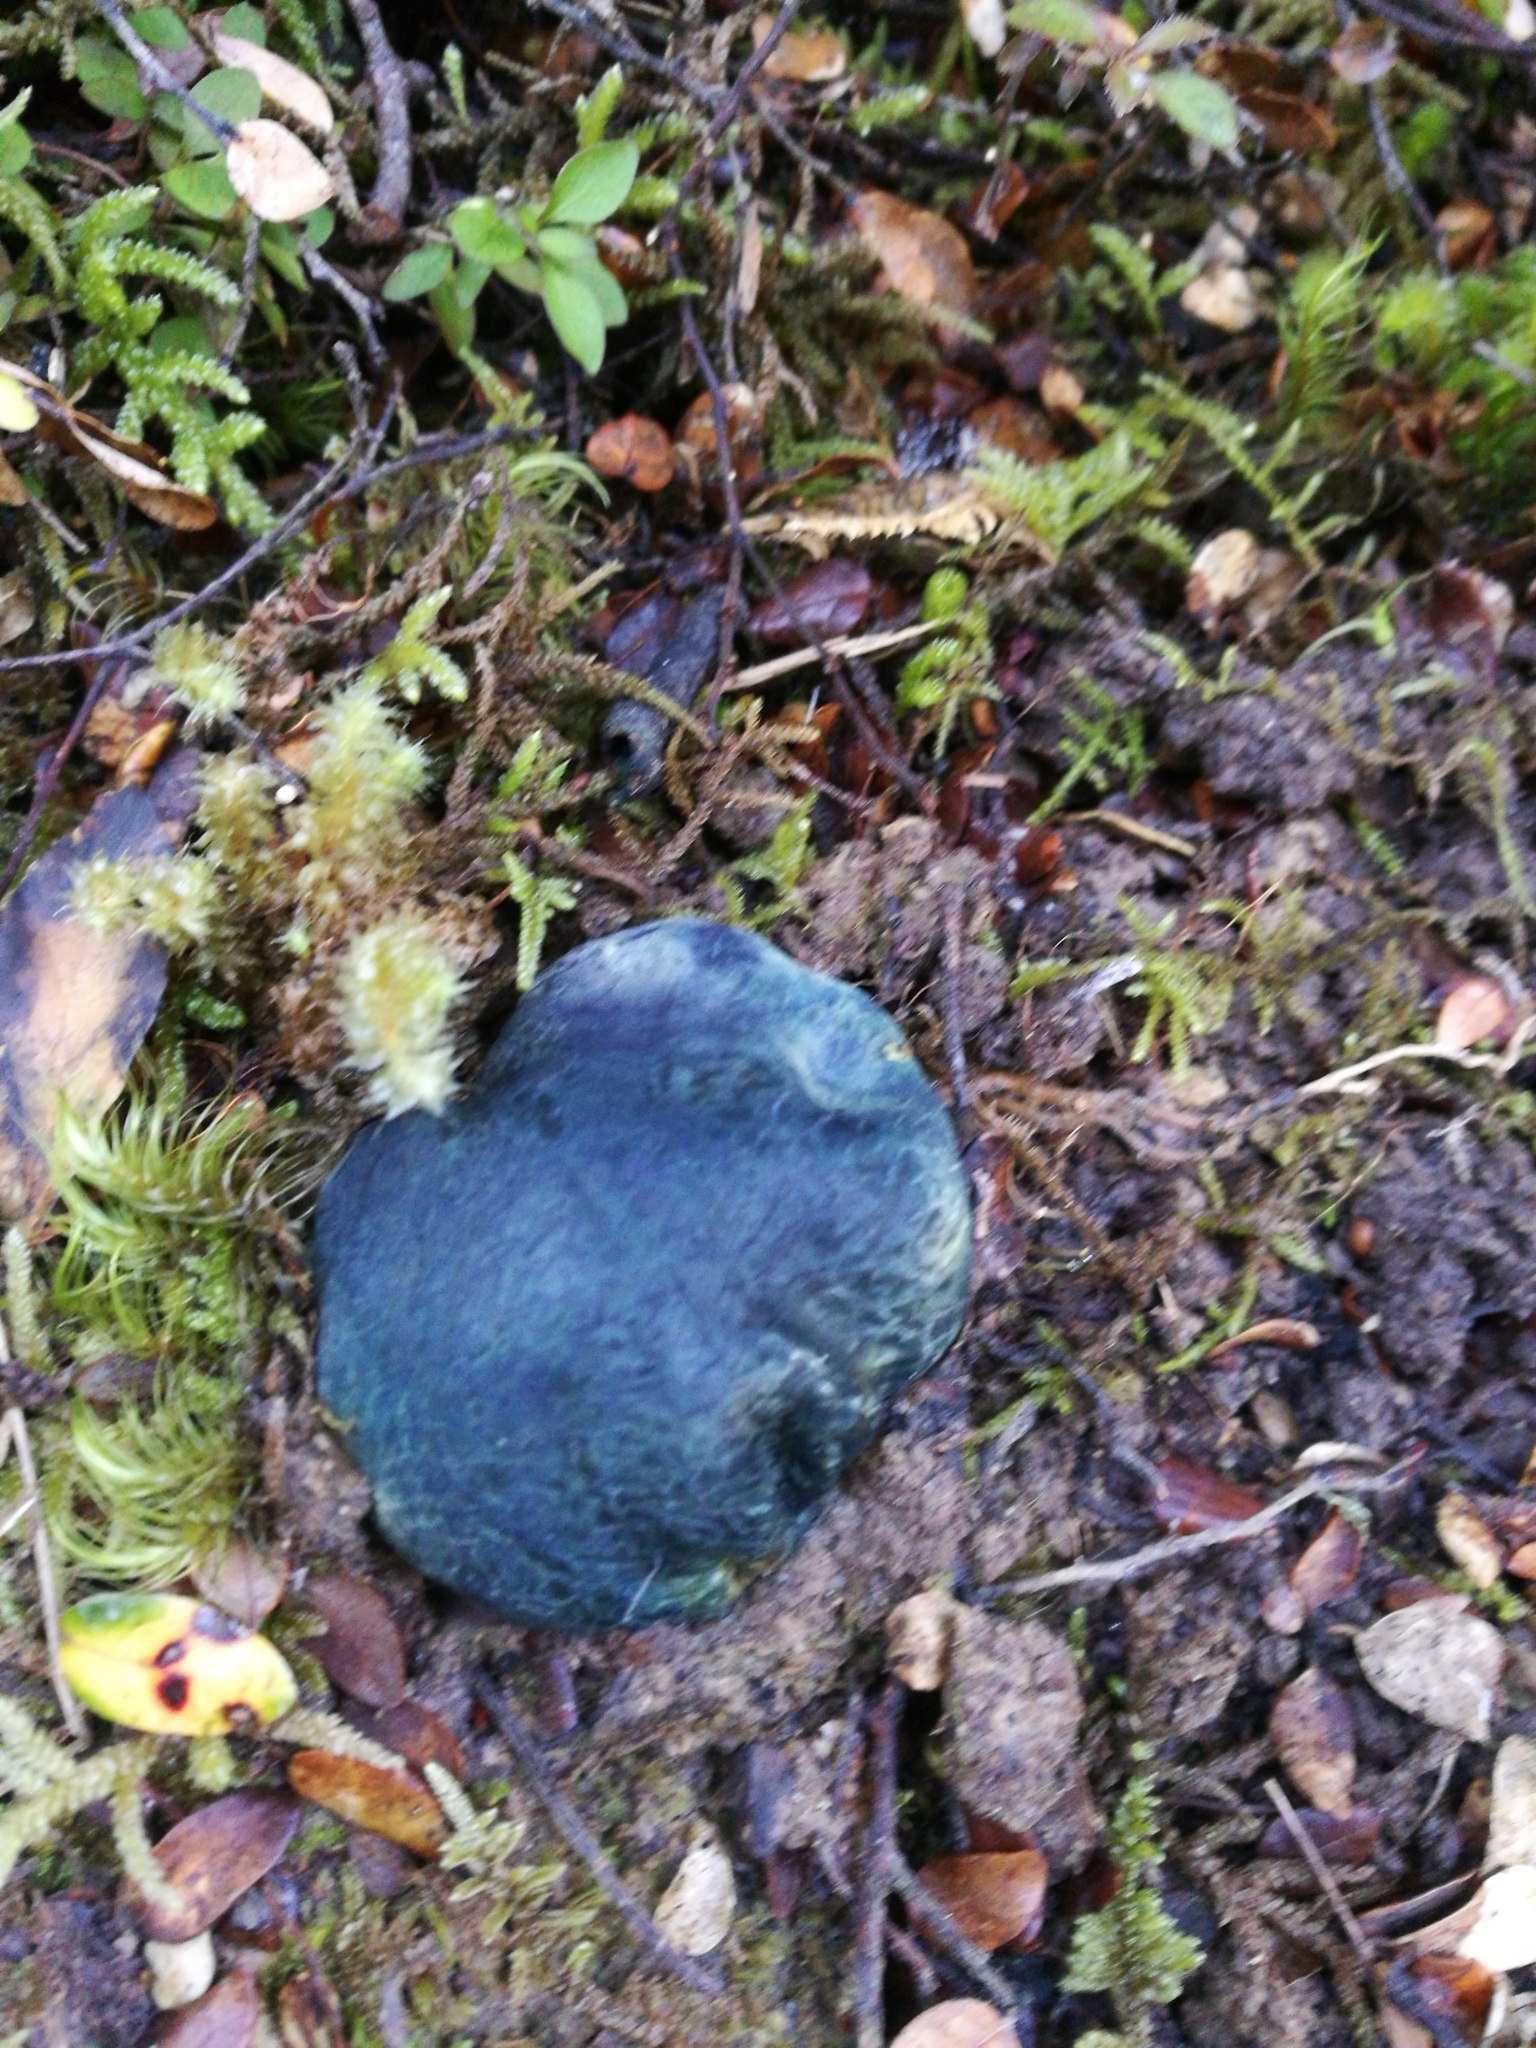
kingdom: Fungi
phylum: Basidiomycota
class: Agaricomycetes
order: Boletales
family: Boletaceae
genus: Leccinum
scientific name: Leccinum pachyderme
